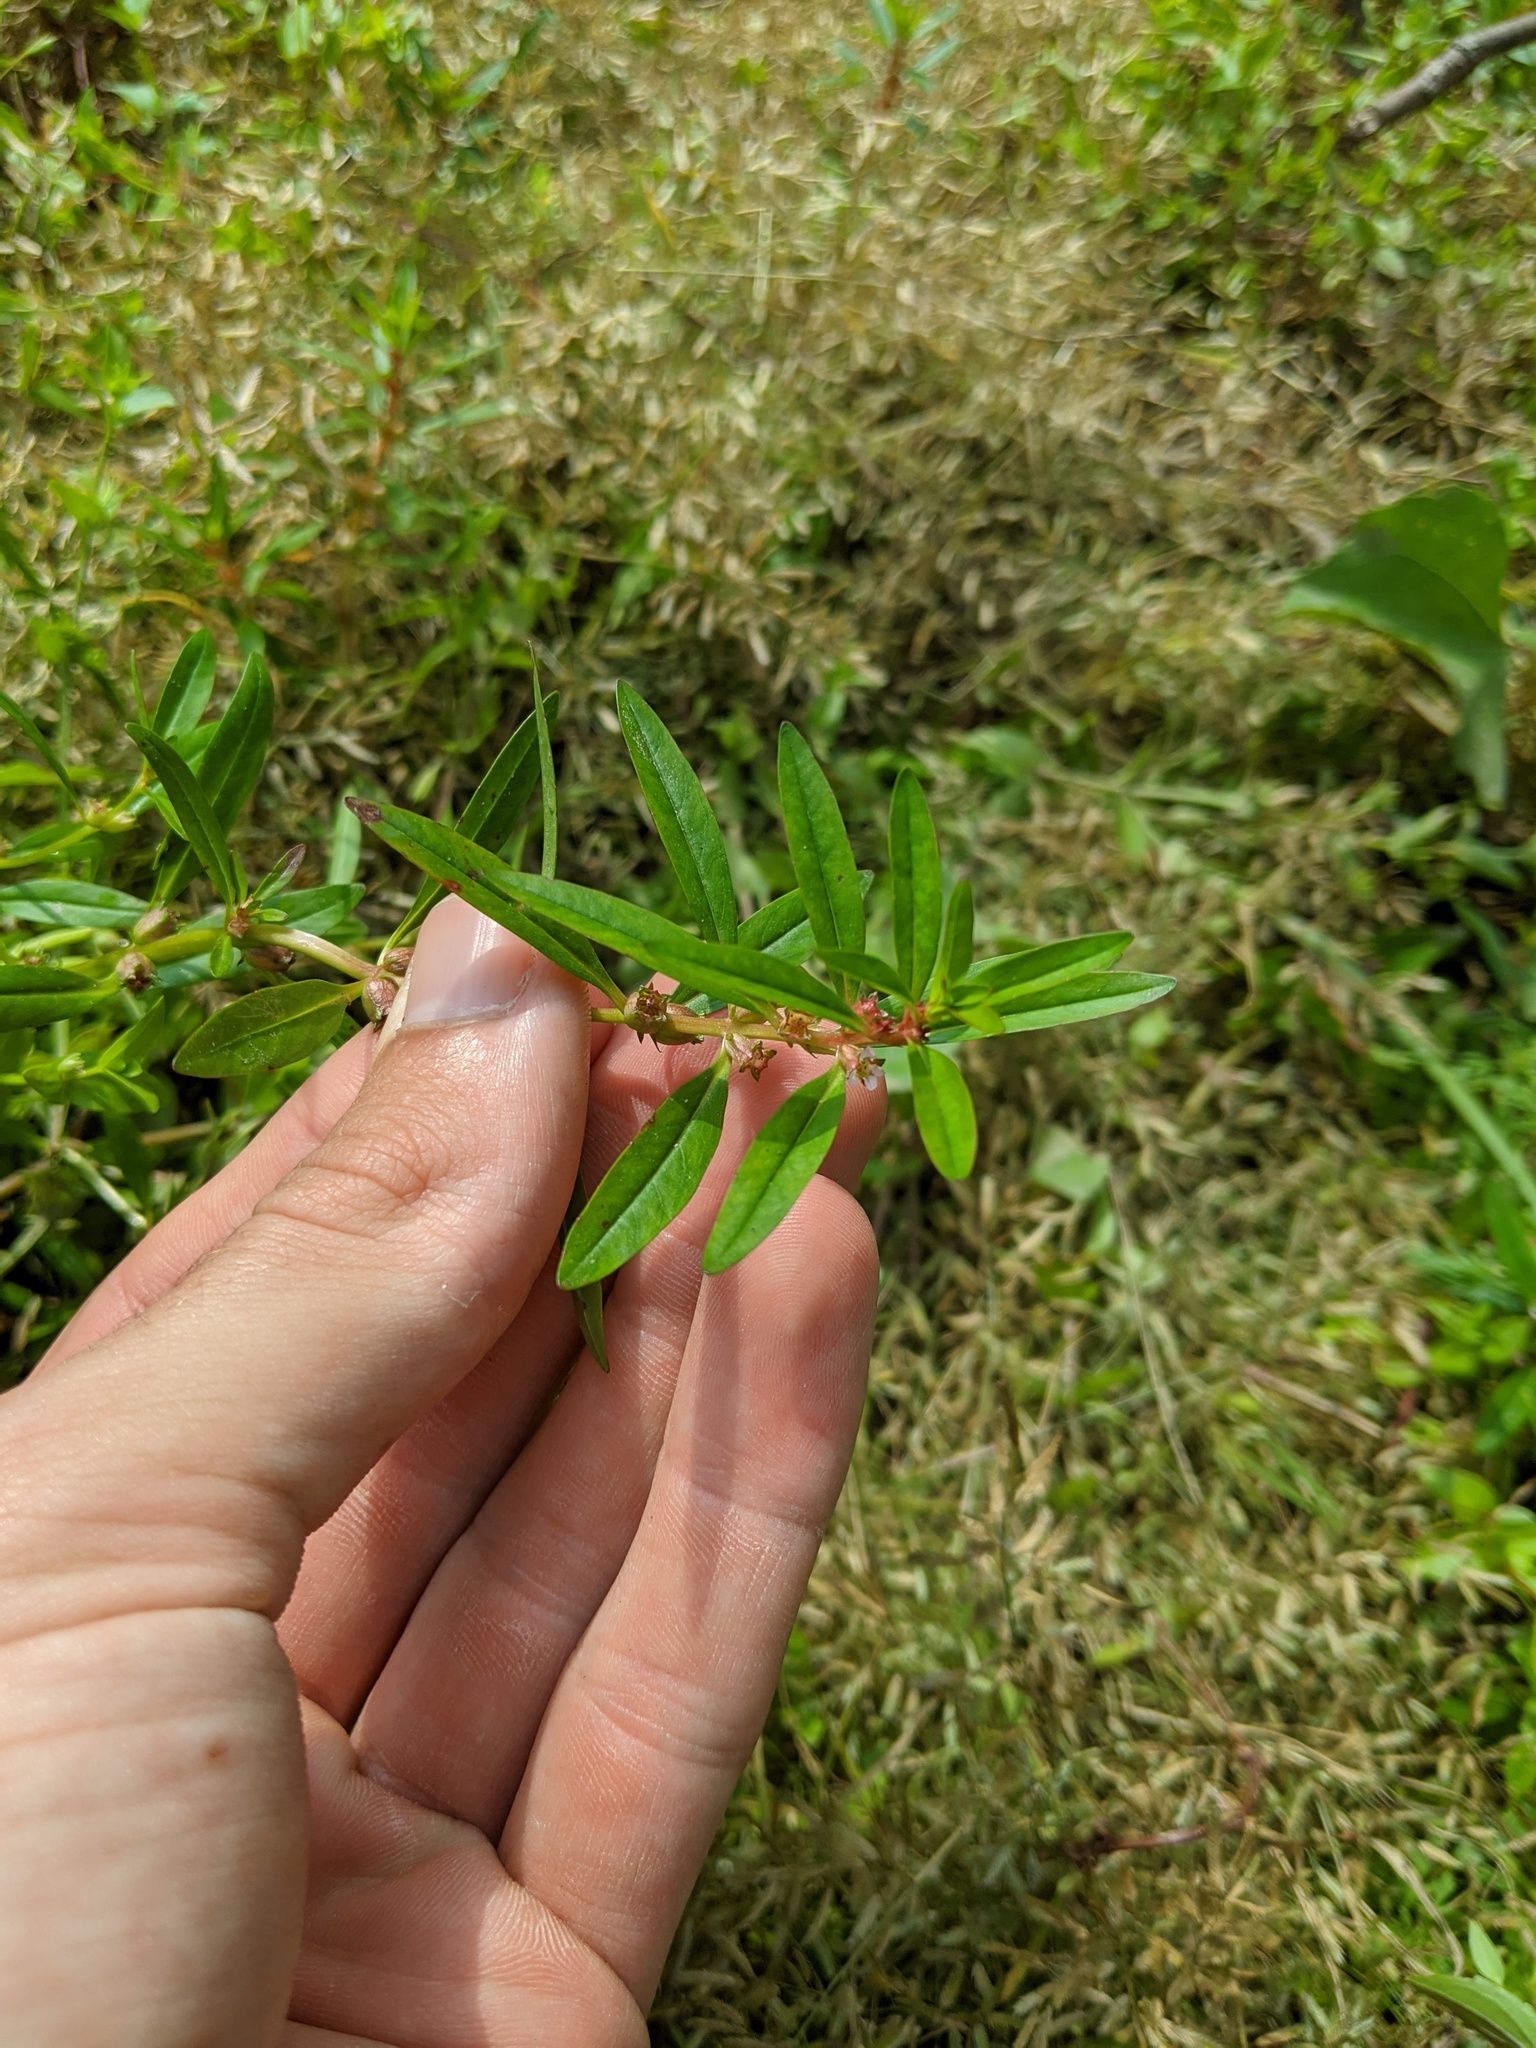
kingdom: Plantae
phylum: Tracheophyta
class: Magnoliopsida
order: Myrtales
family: Lythraceae
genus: Rotala
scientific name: Rotala ramosior
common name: Lowland rotala
